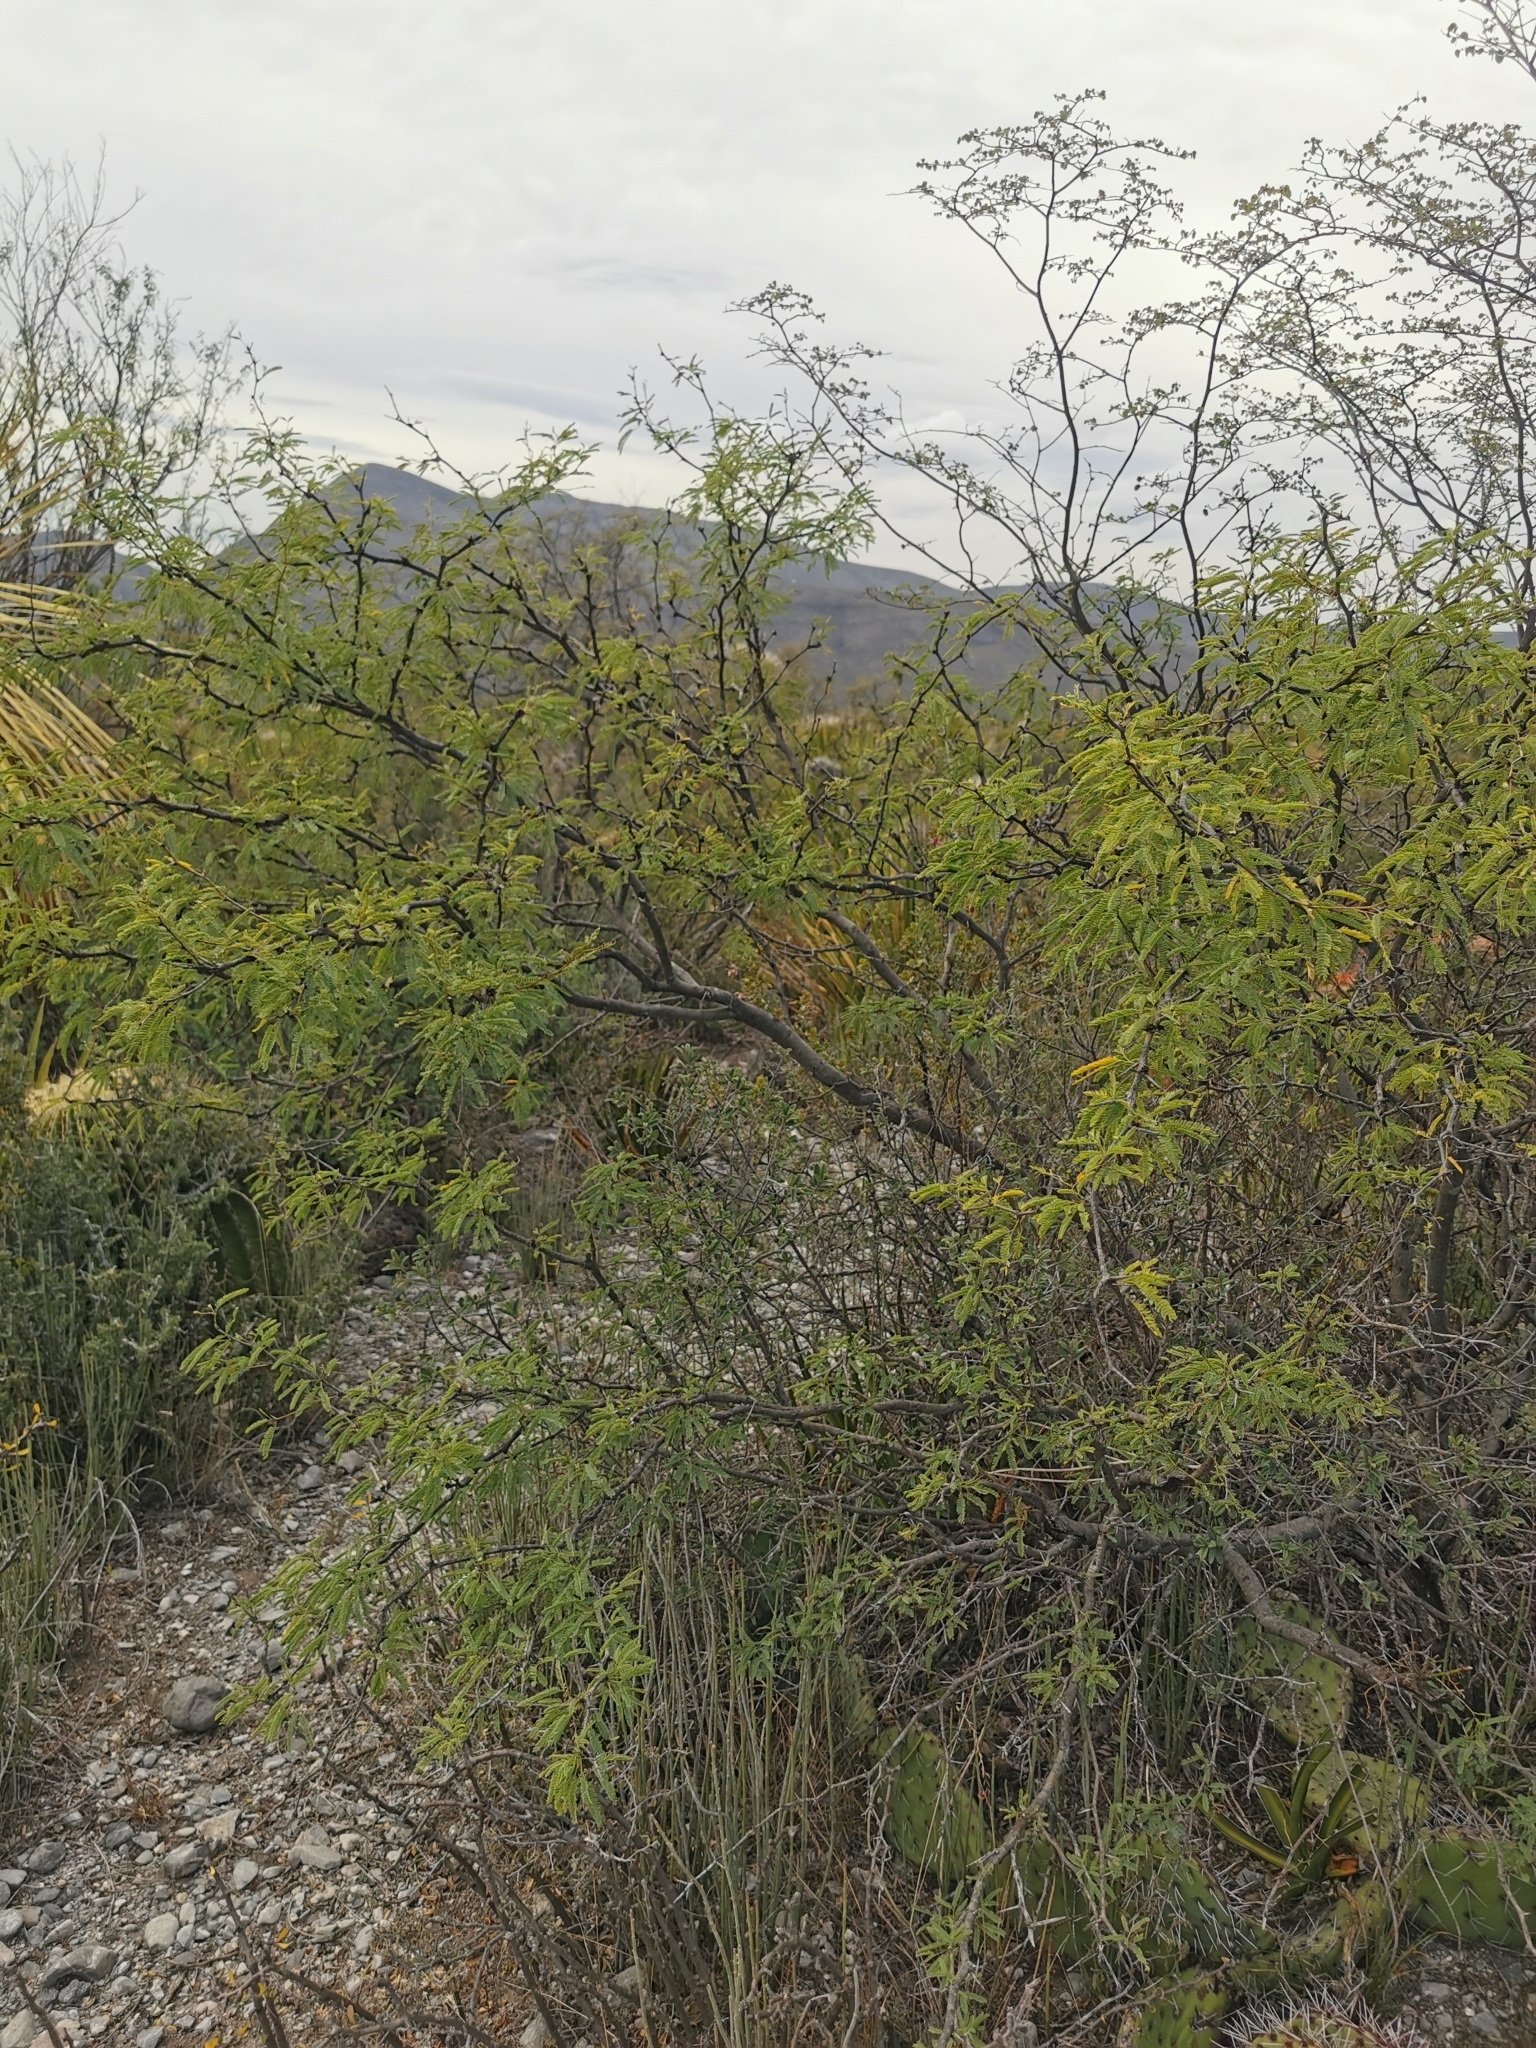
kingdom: Plantae
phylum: Tracheophyta
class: Magnoliopsida
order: Fabales
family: Fabaceae
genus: Prosopis
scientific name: Prosopis tamaulipana
